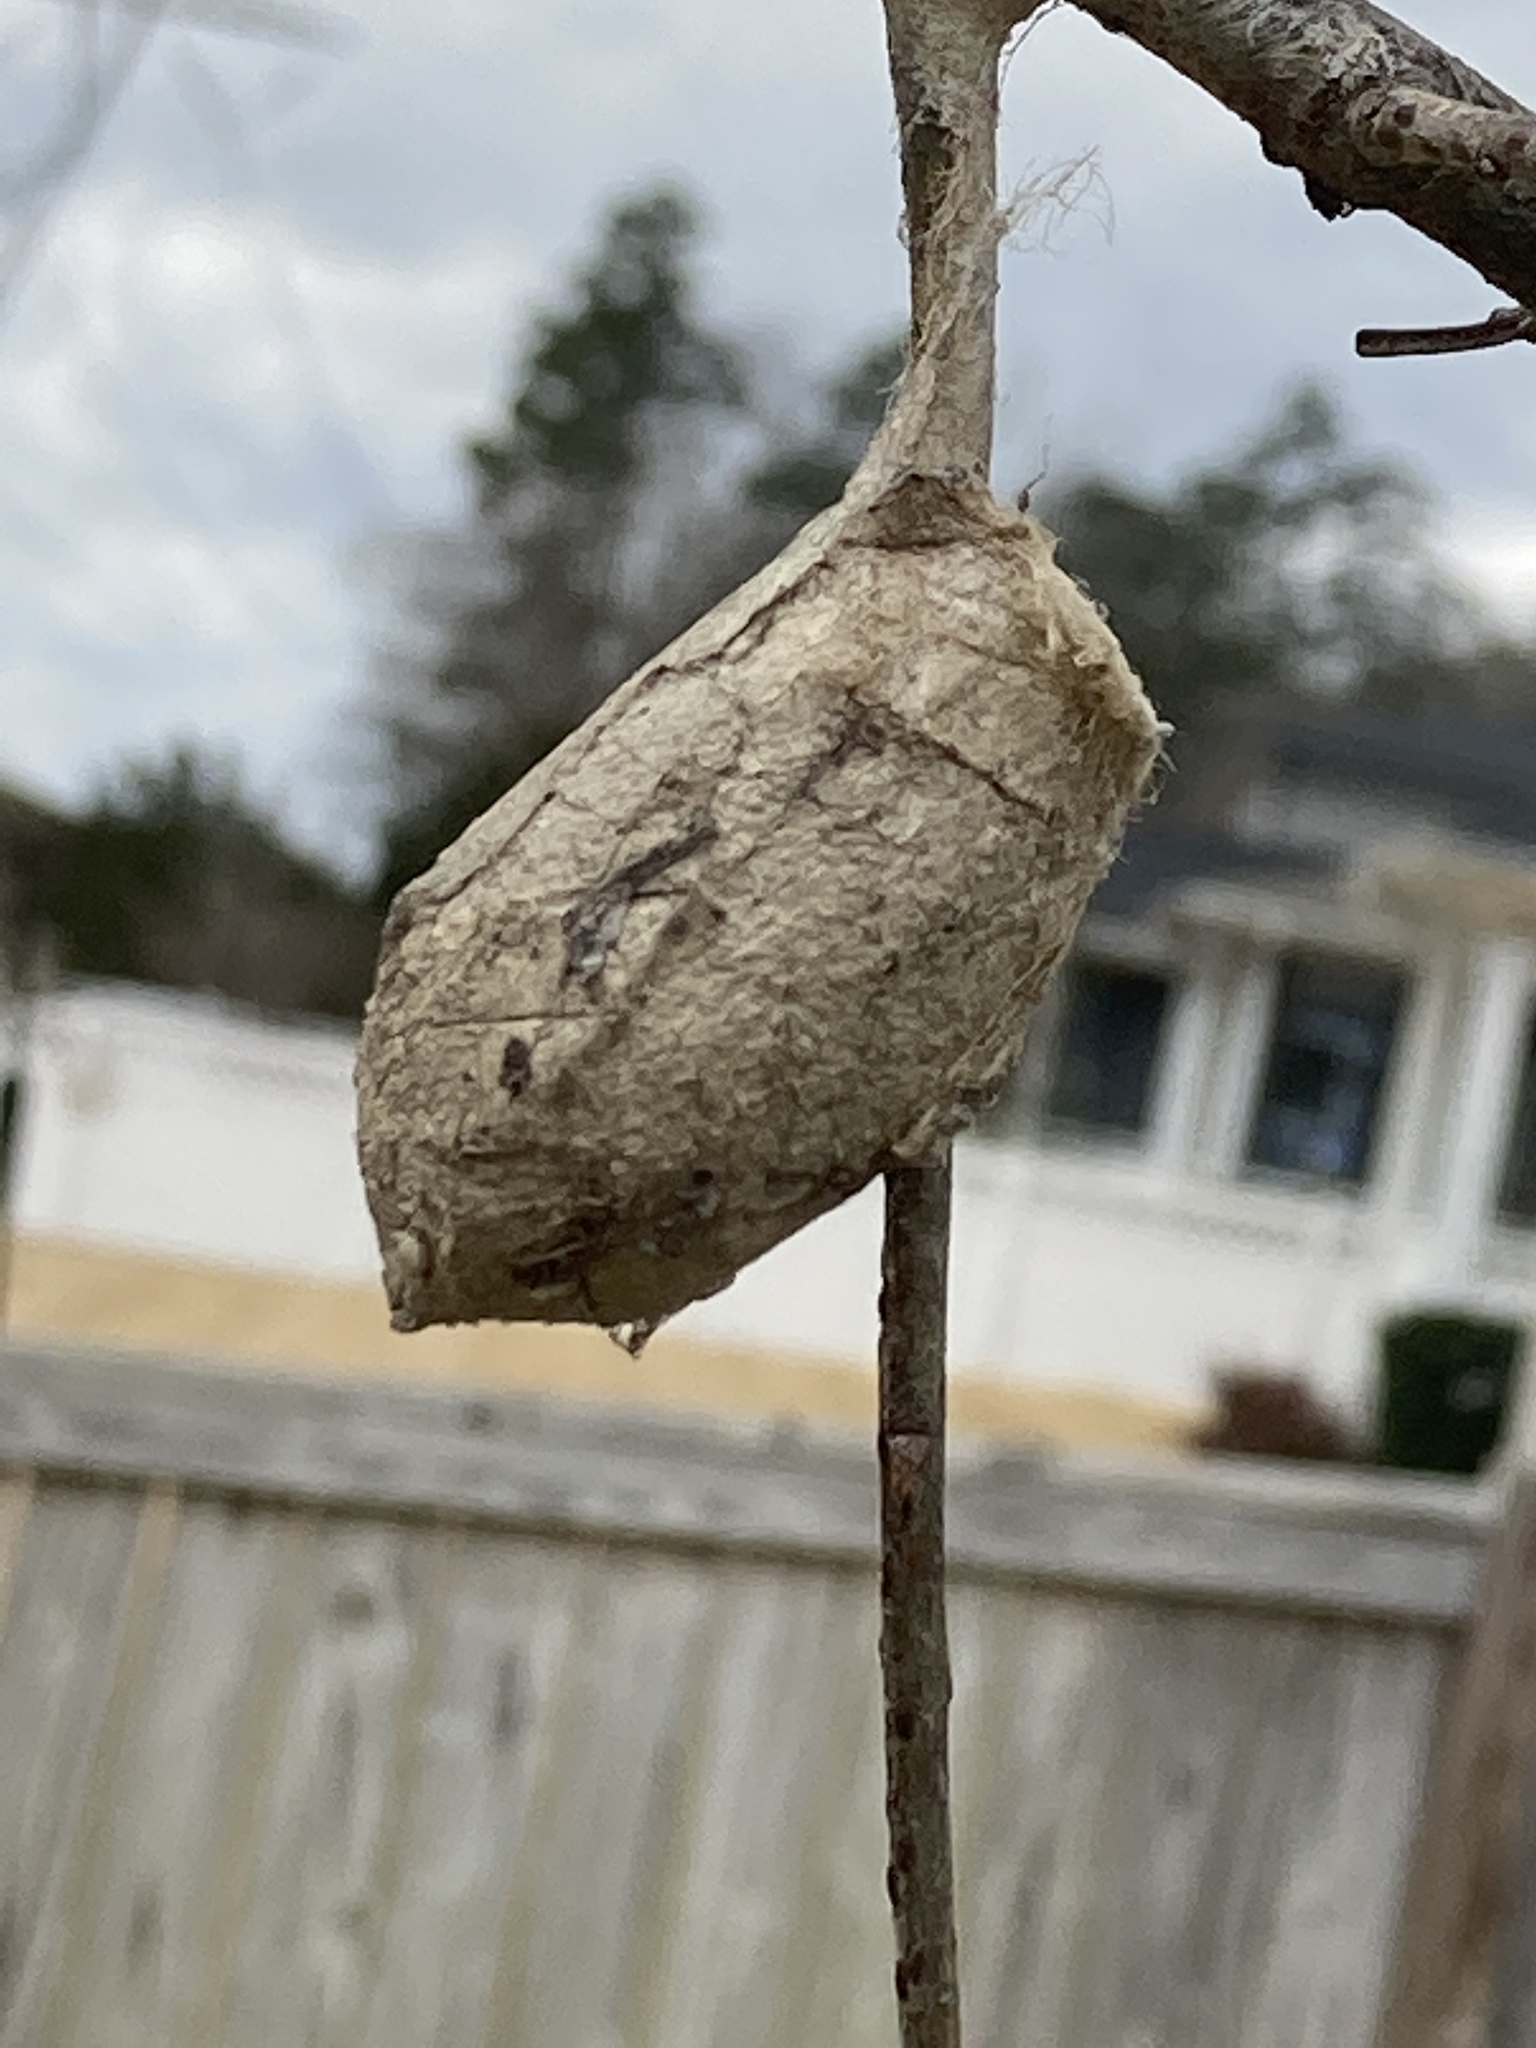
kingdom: Animalia
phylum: Arthropoda
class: Insecta
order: Lepidoptera
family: Saturniidae
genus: Antheraea
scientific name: Antheraea polyphemus
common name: Polyphemus moth
